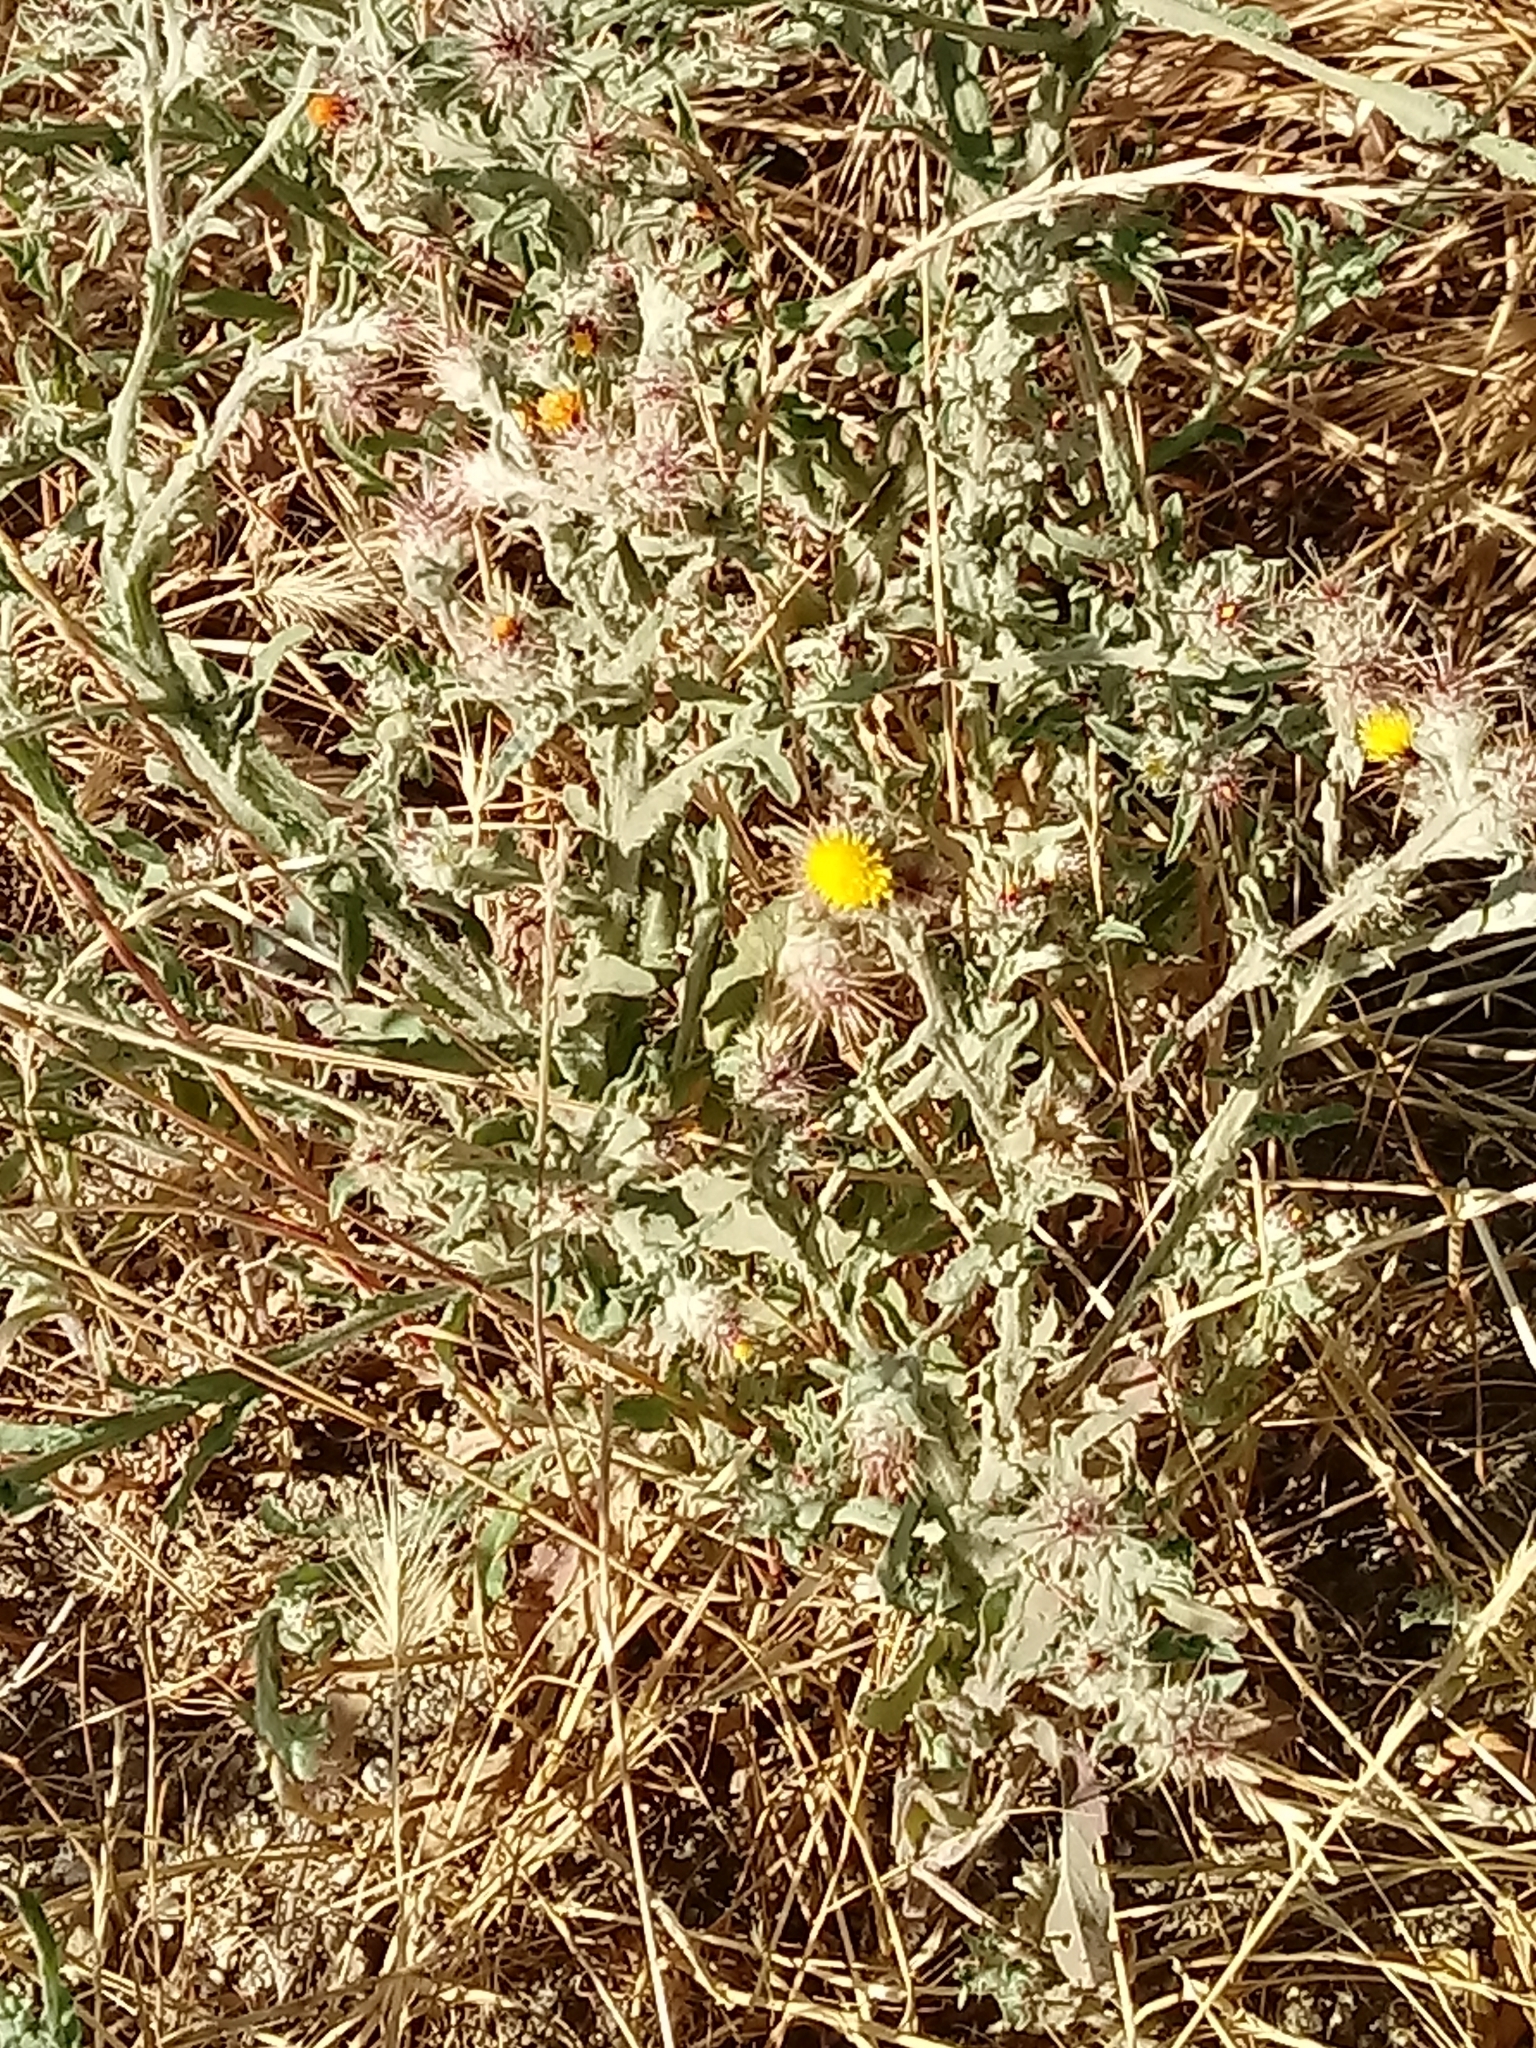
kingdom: Plantae
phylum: Tracheophyta
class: Magnoliopsida
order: Asterales
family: Asteraceae
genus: Centaurea
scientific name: Centaurea melitensis
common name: Maltese star-thistle
